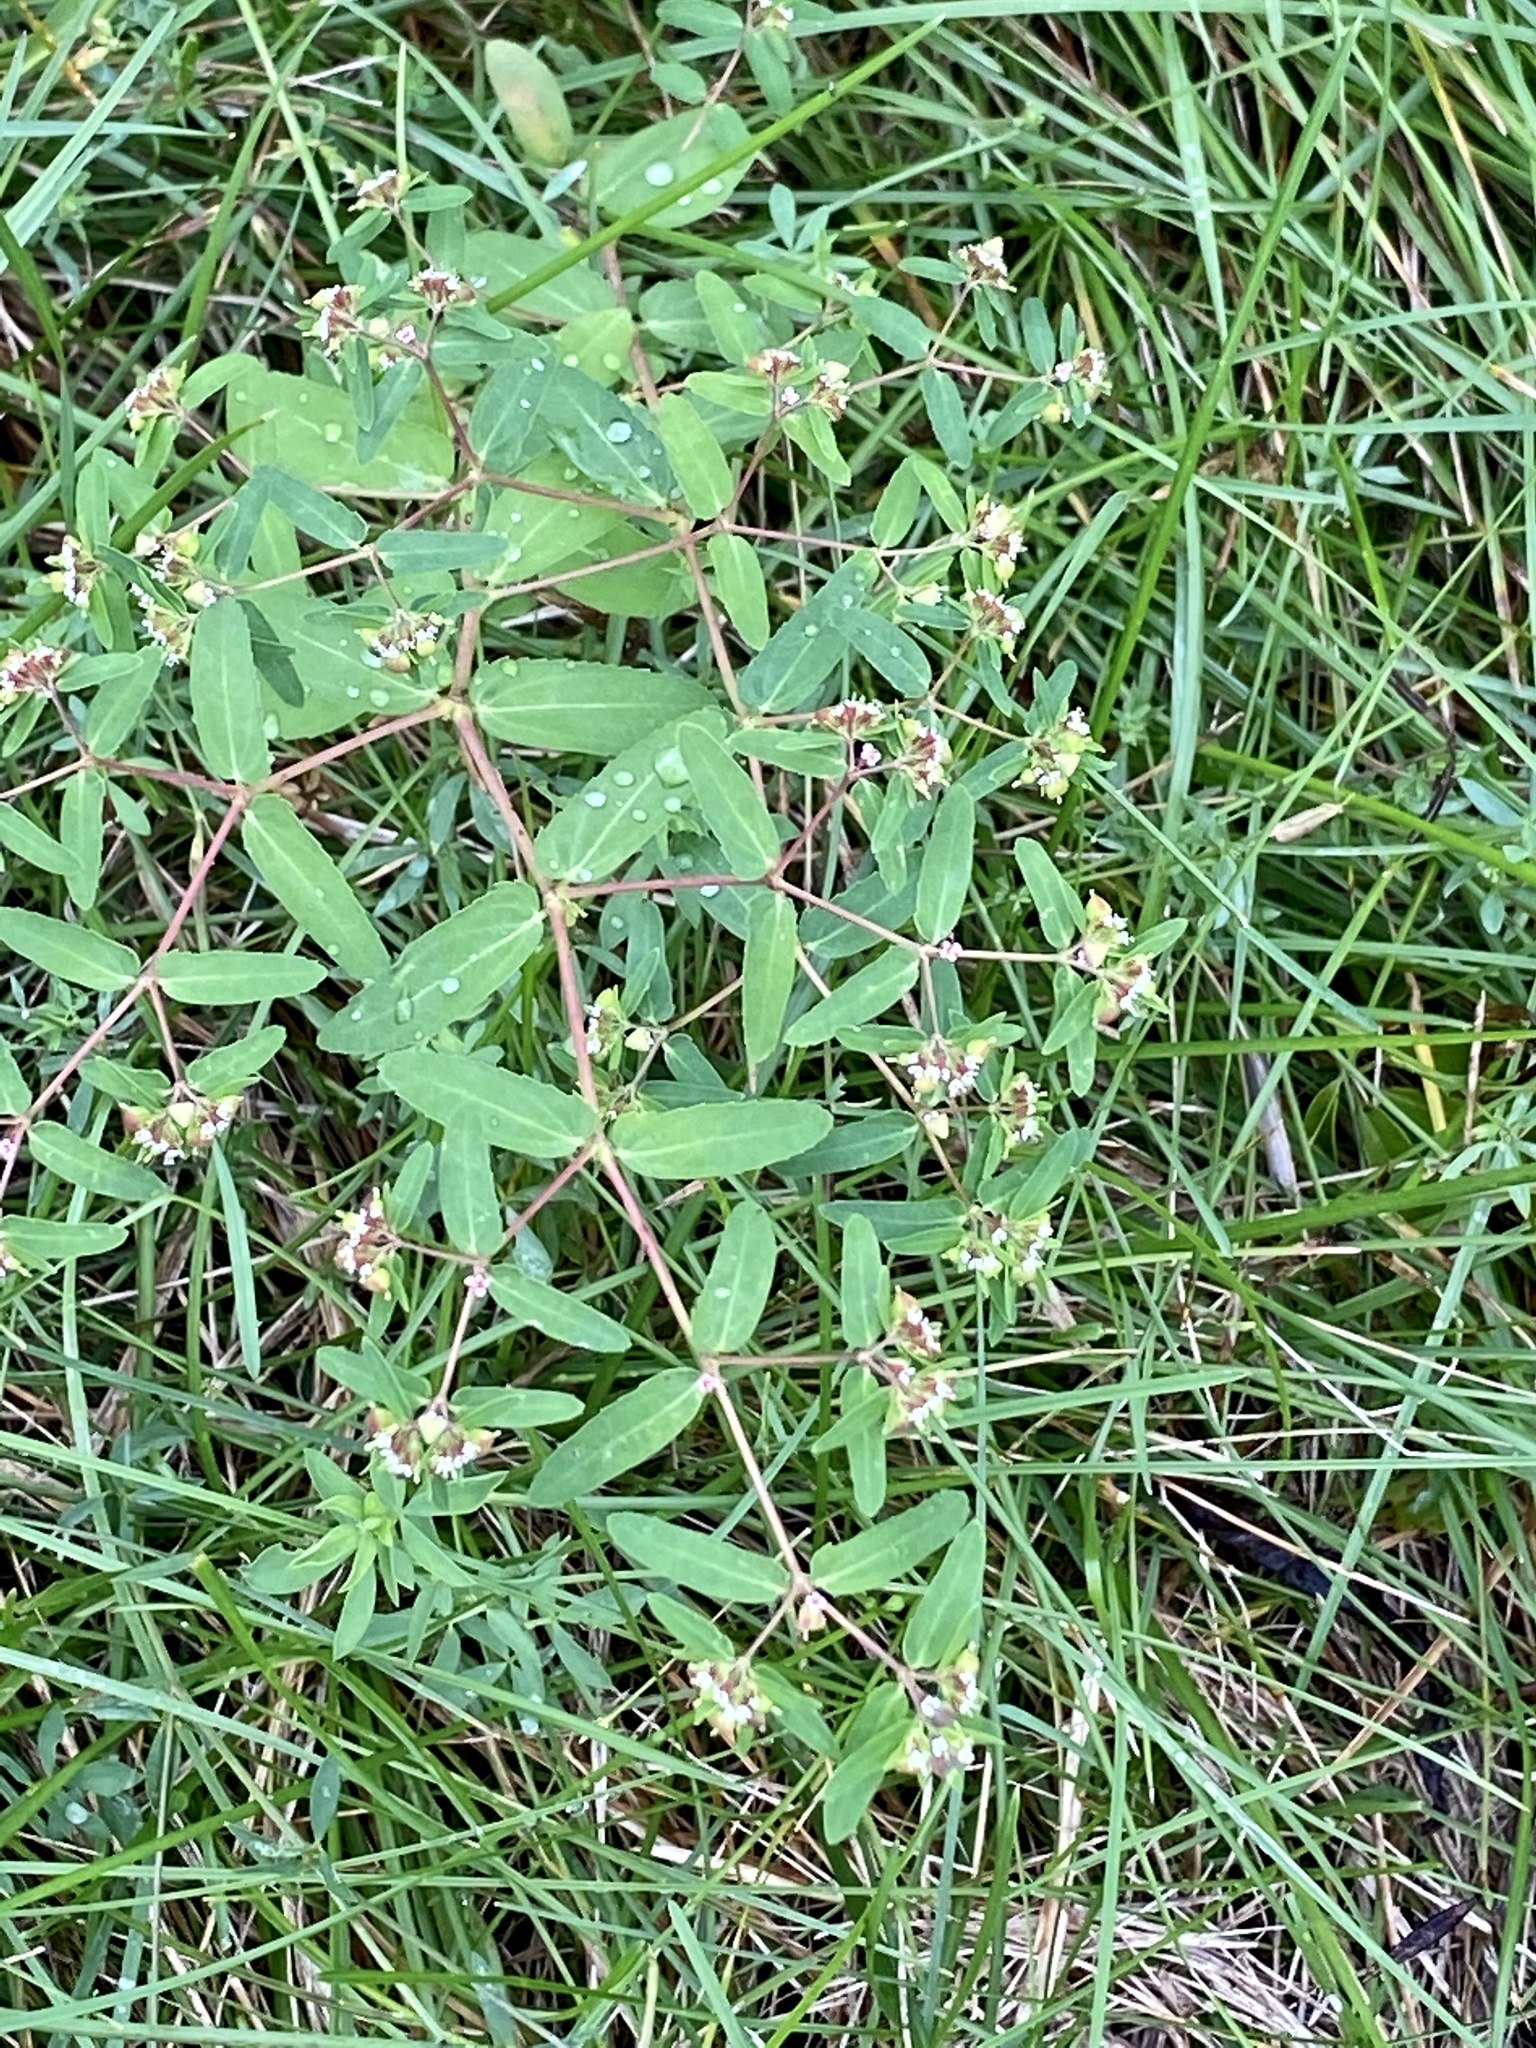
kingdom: Plantae
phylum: Tracheophyta
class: Magnoliopsida
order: Malpighiales
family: Euphorbiaceae
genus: Euphorbia
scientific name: Euphorbia nutans
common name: Eyebane
